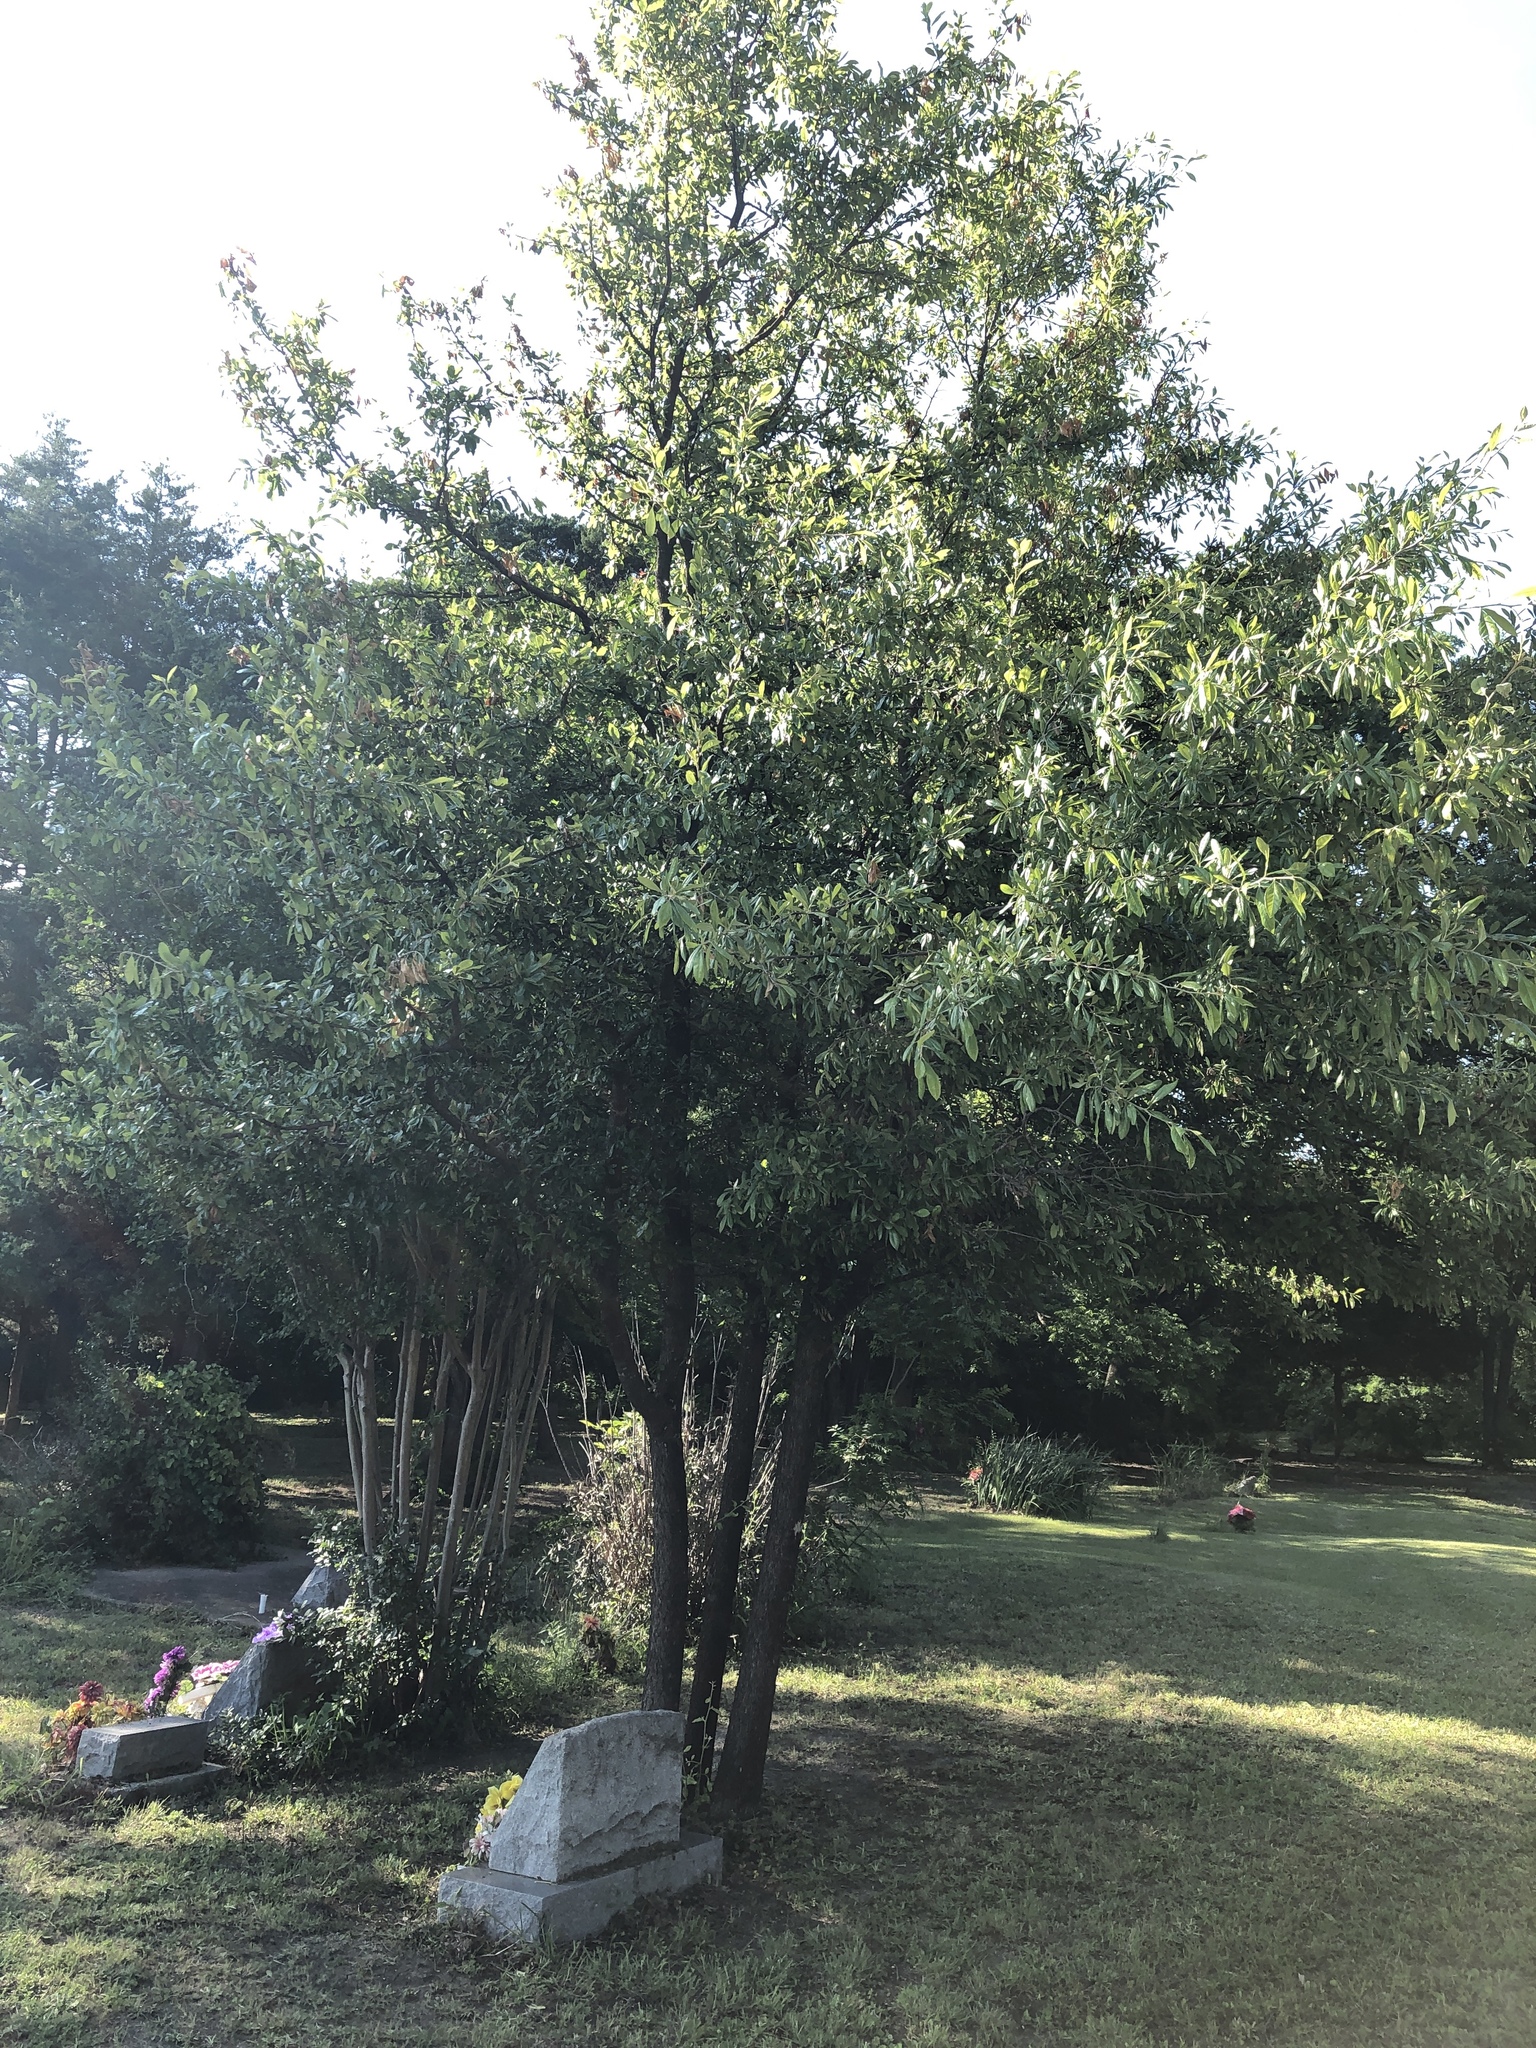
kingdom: Plantae
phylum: Tracheophyta
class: Magnoliopsida
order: Ericales
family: Sapotaceae
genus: Sideroxylon
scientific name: Sideroxylon lanuginosum
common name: Chittamwood
